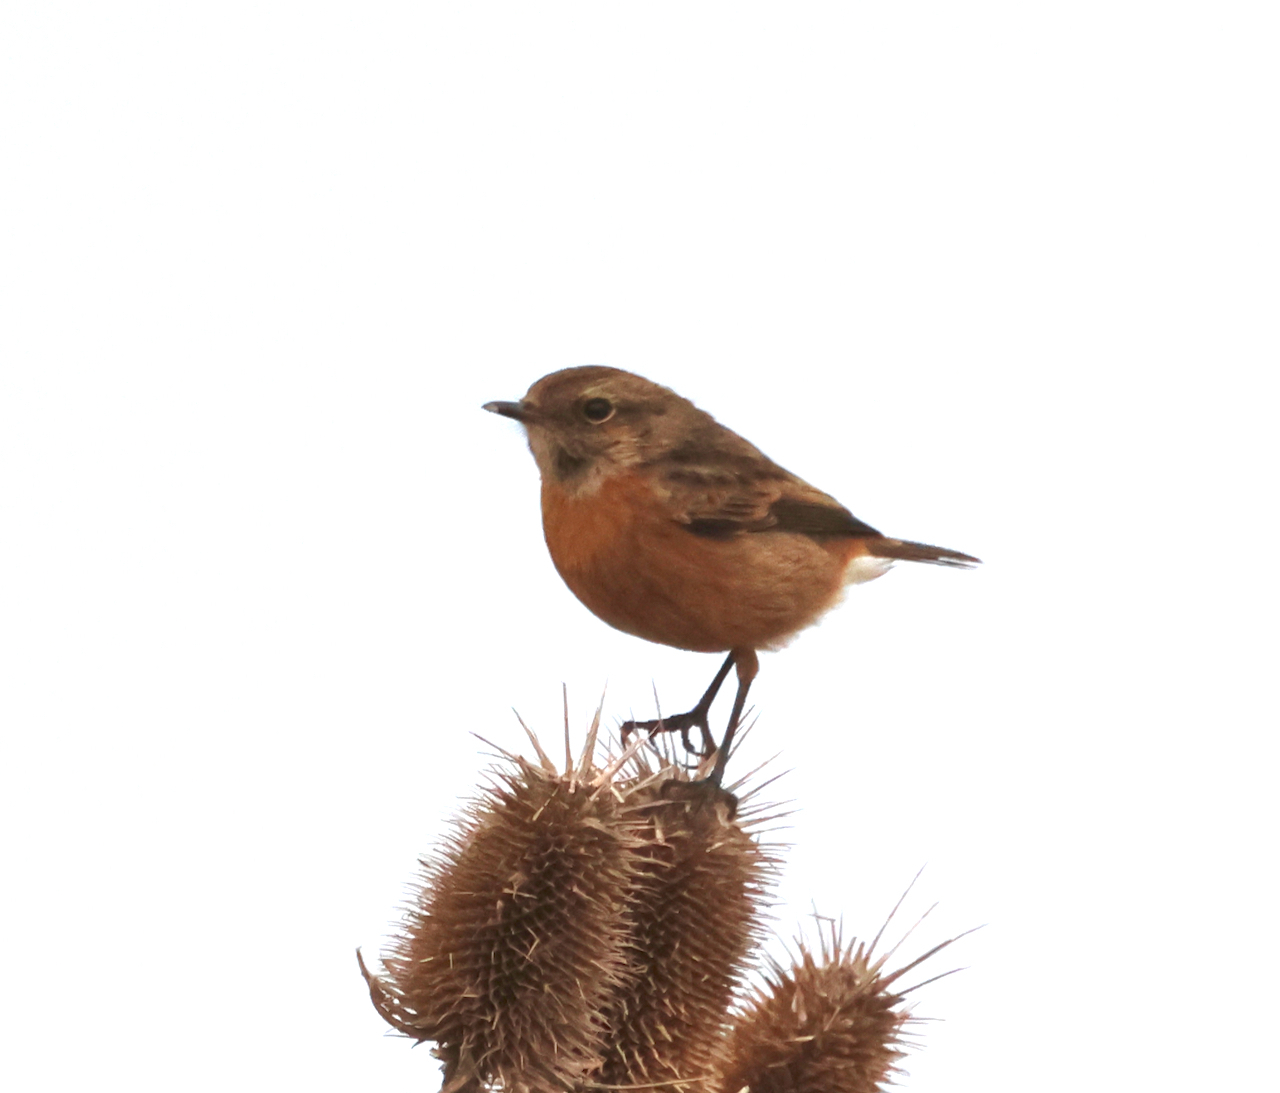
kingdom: Animalia
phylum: Chordata
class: Aves
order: Passeriformes
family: Muscicapidae
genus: Saxicola
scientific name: Saxicola rubicola
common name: European stonechat
